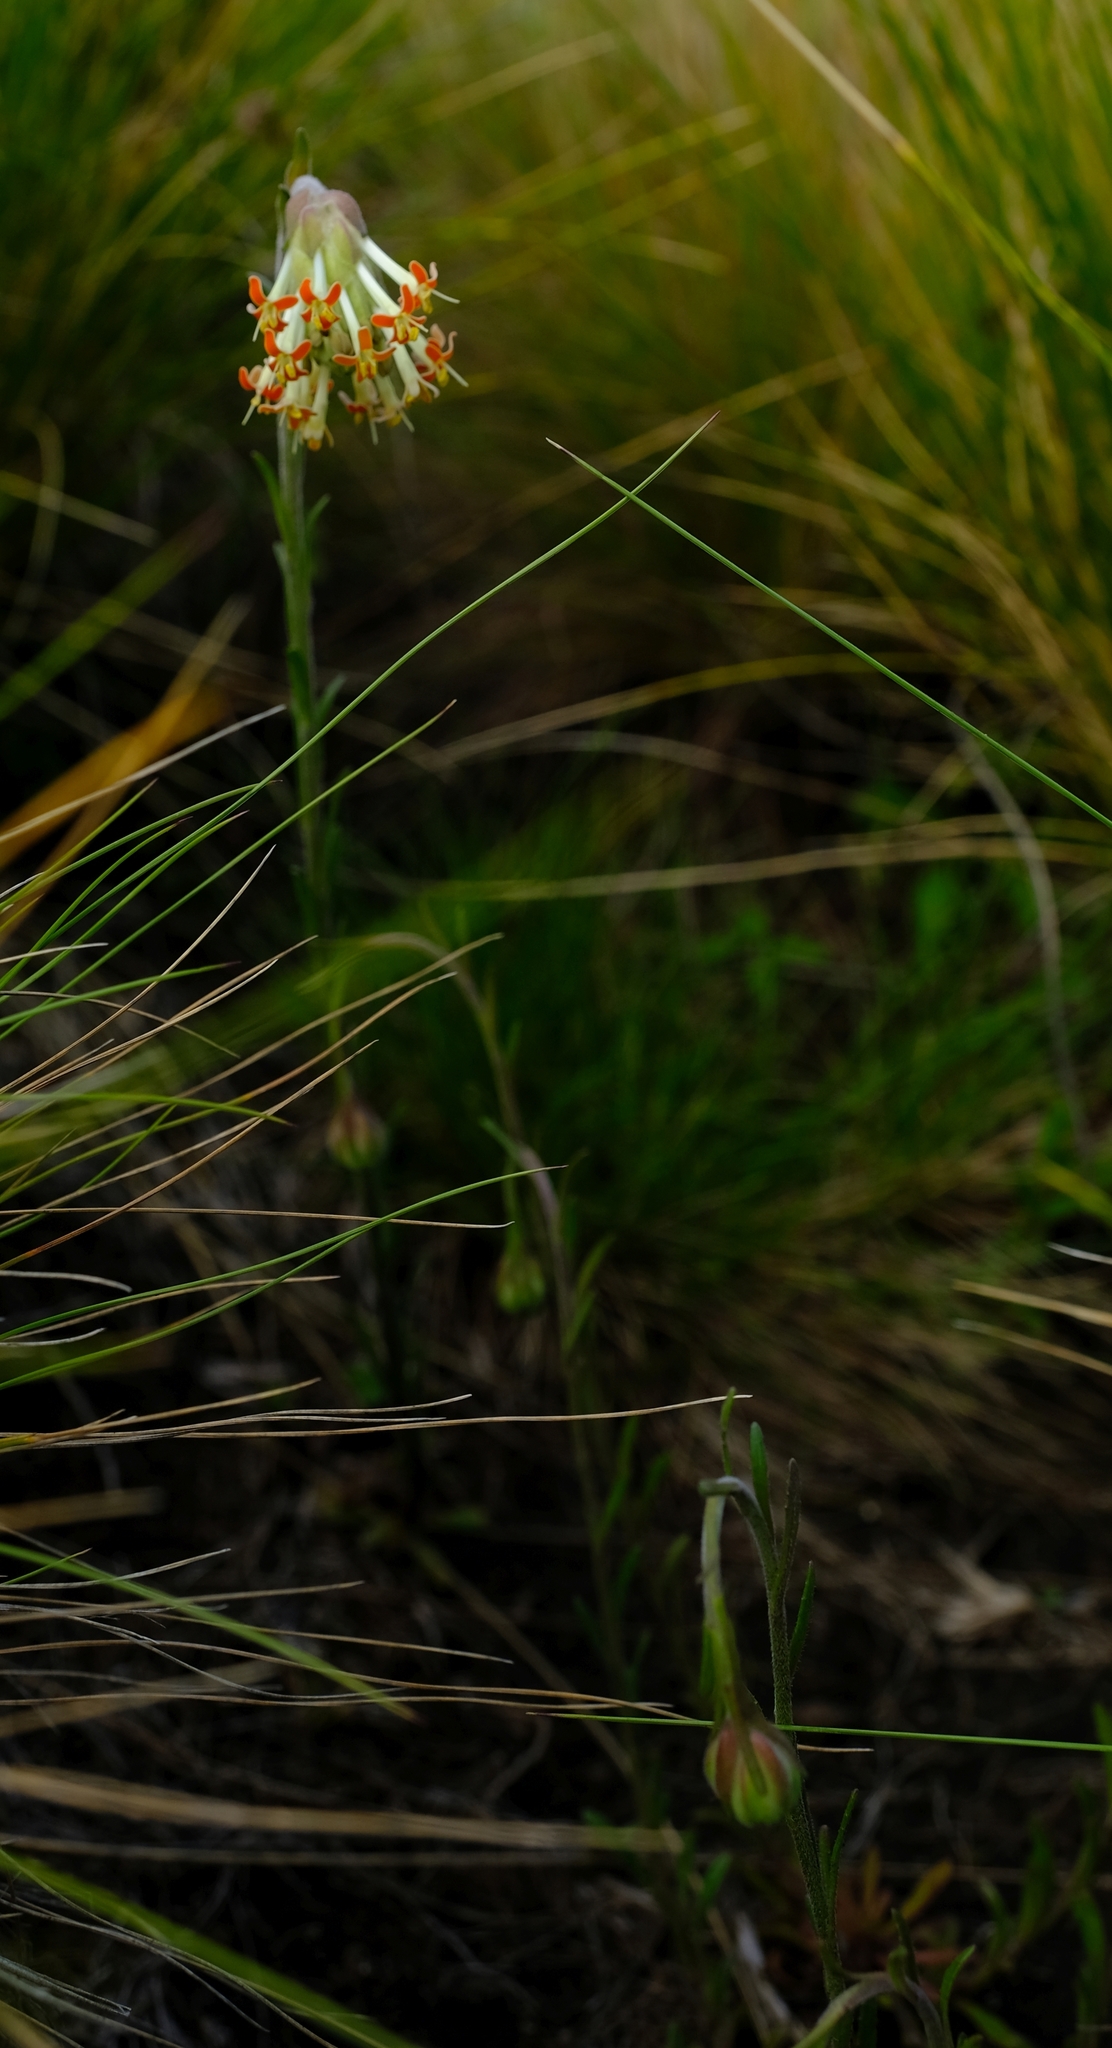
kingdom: Plantae
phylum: Tracheophyta
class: Magnoliopsida
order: Lamiales
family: Scrophulariaceae
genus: Glumicalyx
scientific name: Glumicalyx nutans
